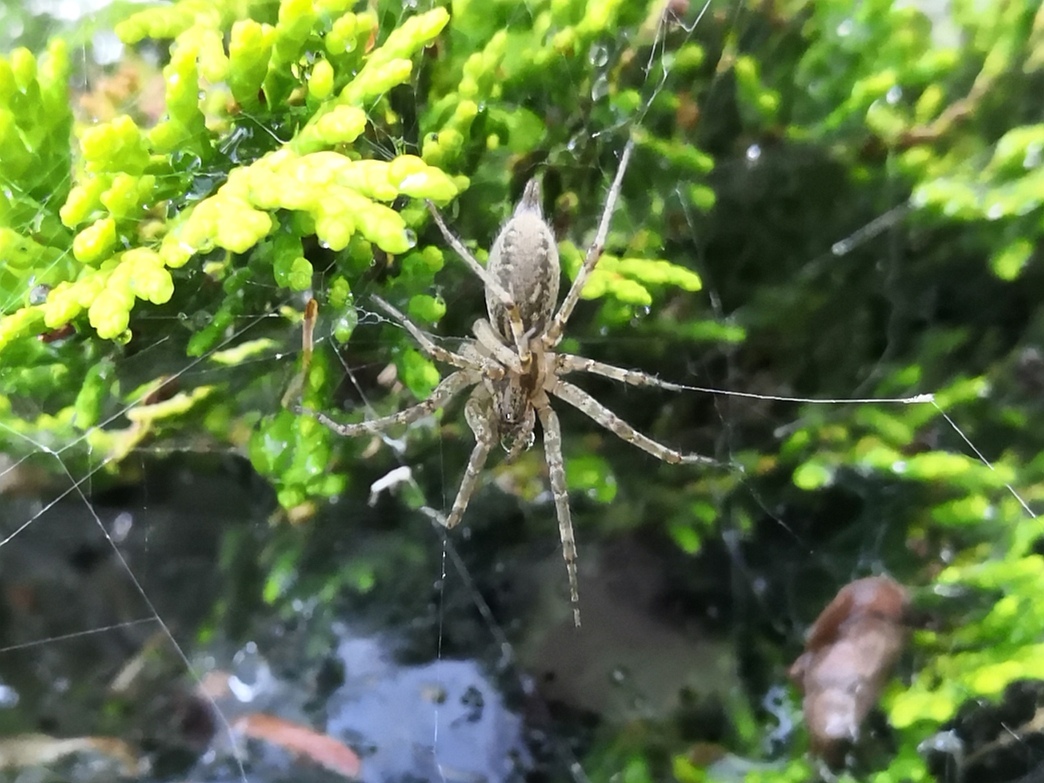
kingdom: Animalia
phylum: Arthropoda
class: Arachnida
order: Araneae
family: Agelenidae
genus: Allagelena
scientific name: Allagelena gracilens
